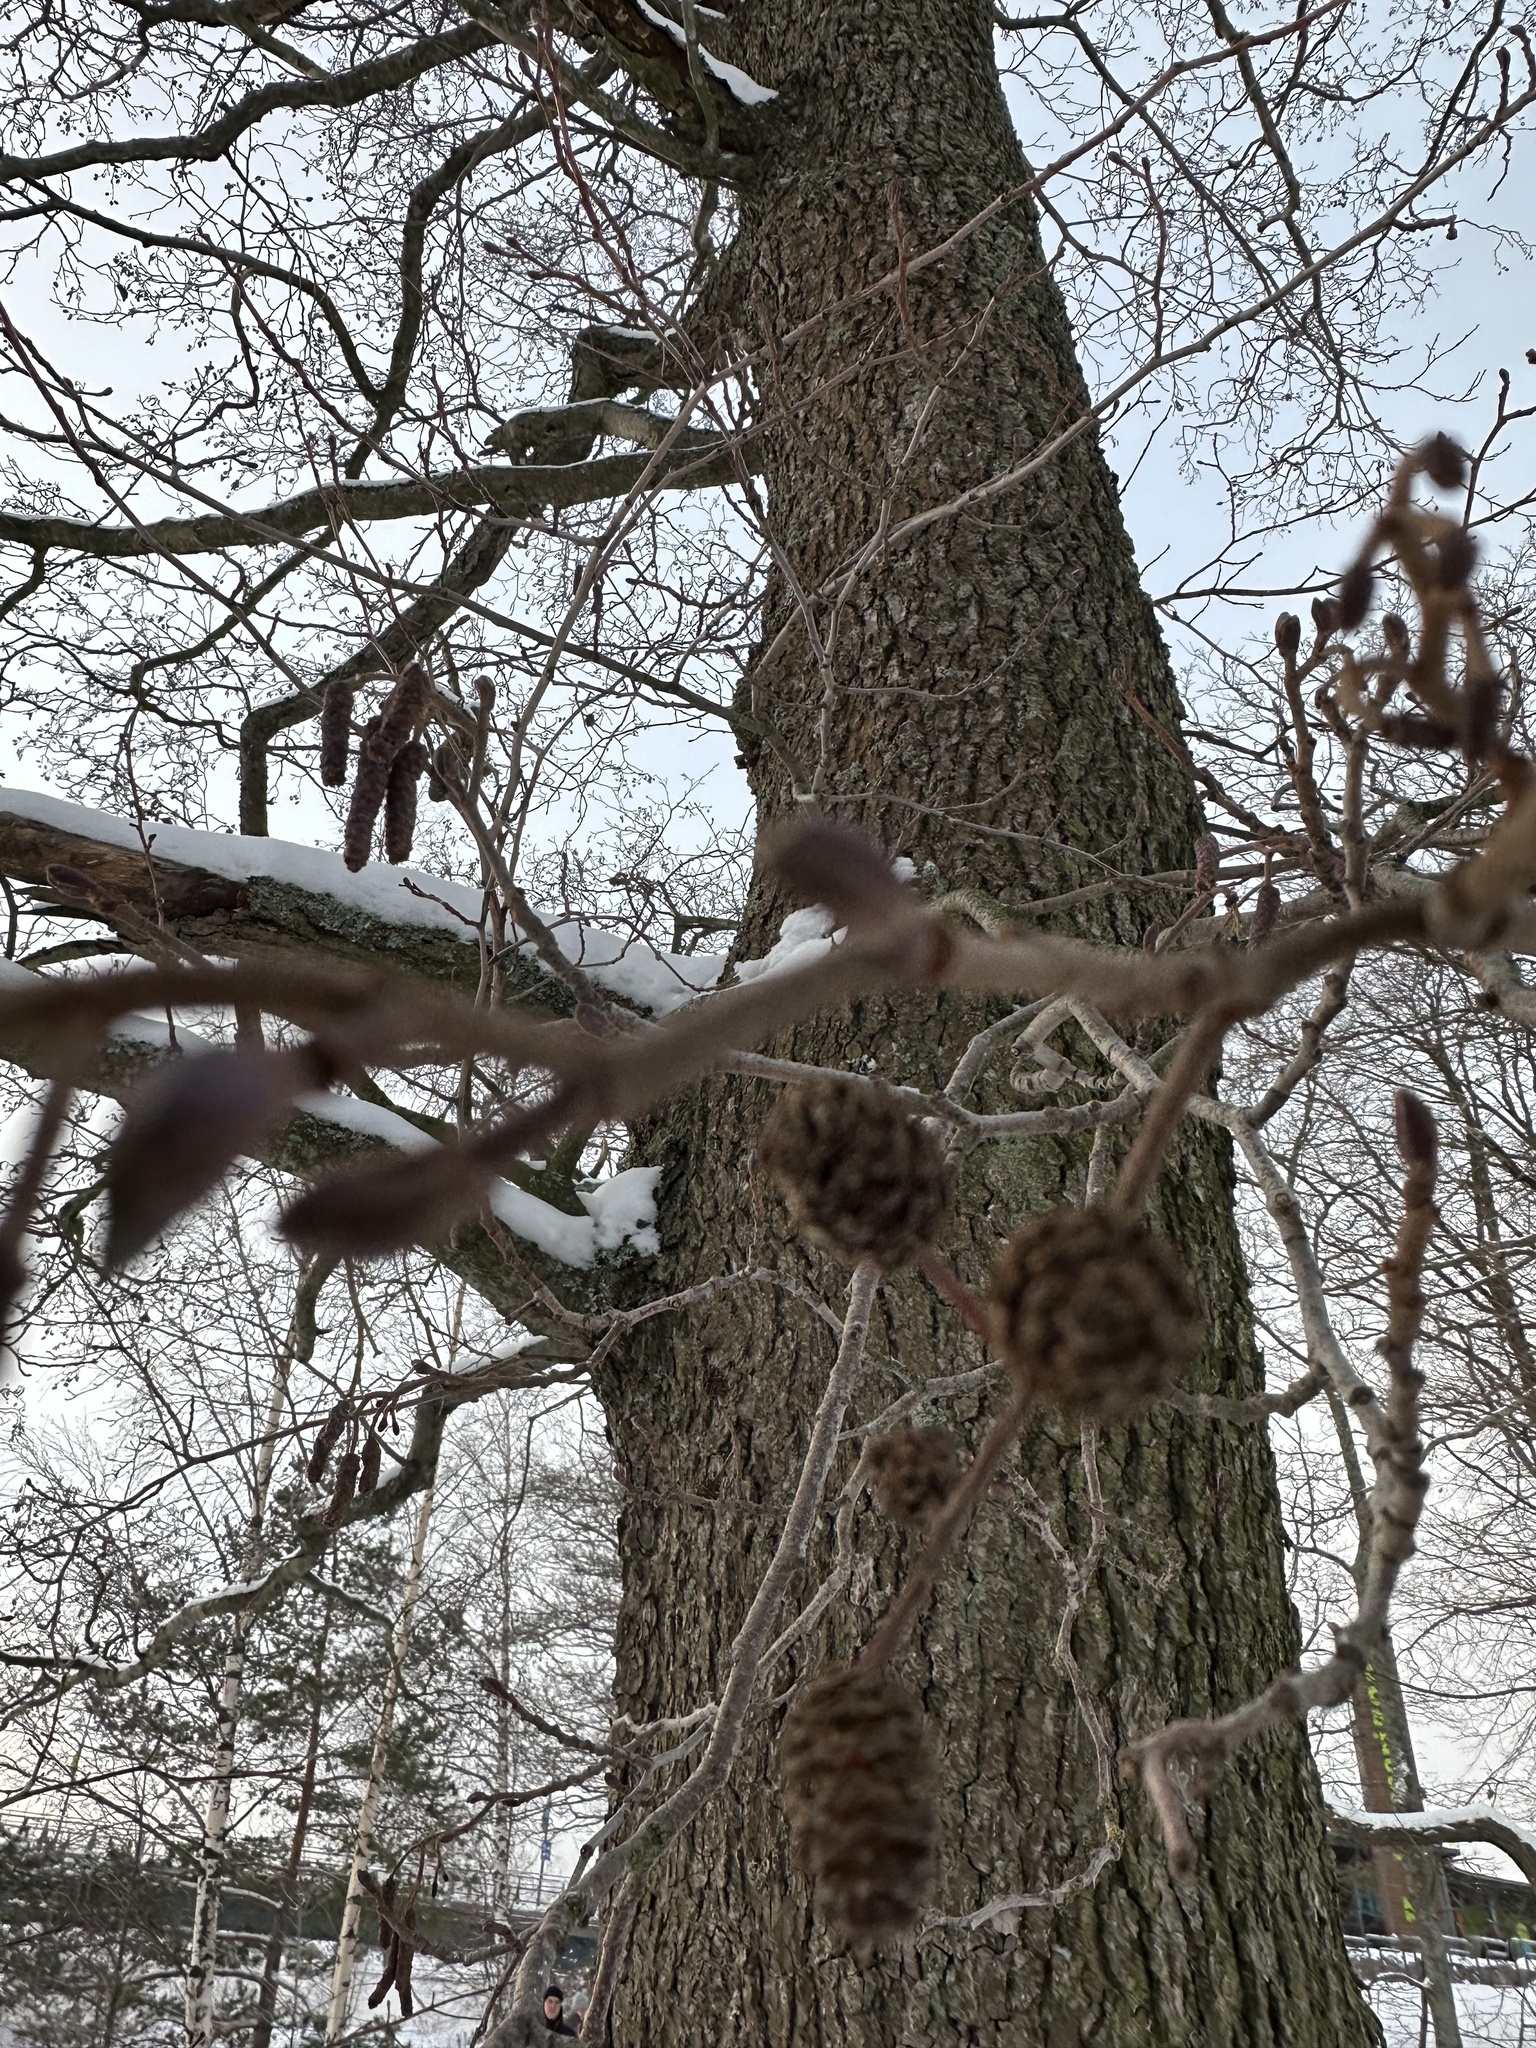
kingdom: Plantae
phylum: Tracheophyta
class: Magnoliopsida
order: Fagales
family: Betulaceae
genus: Alnus
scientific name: Alnus glutinosa
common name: Black alder
